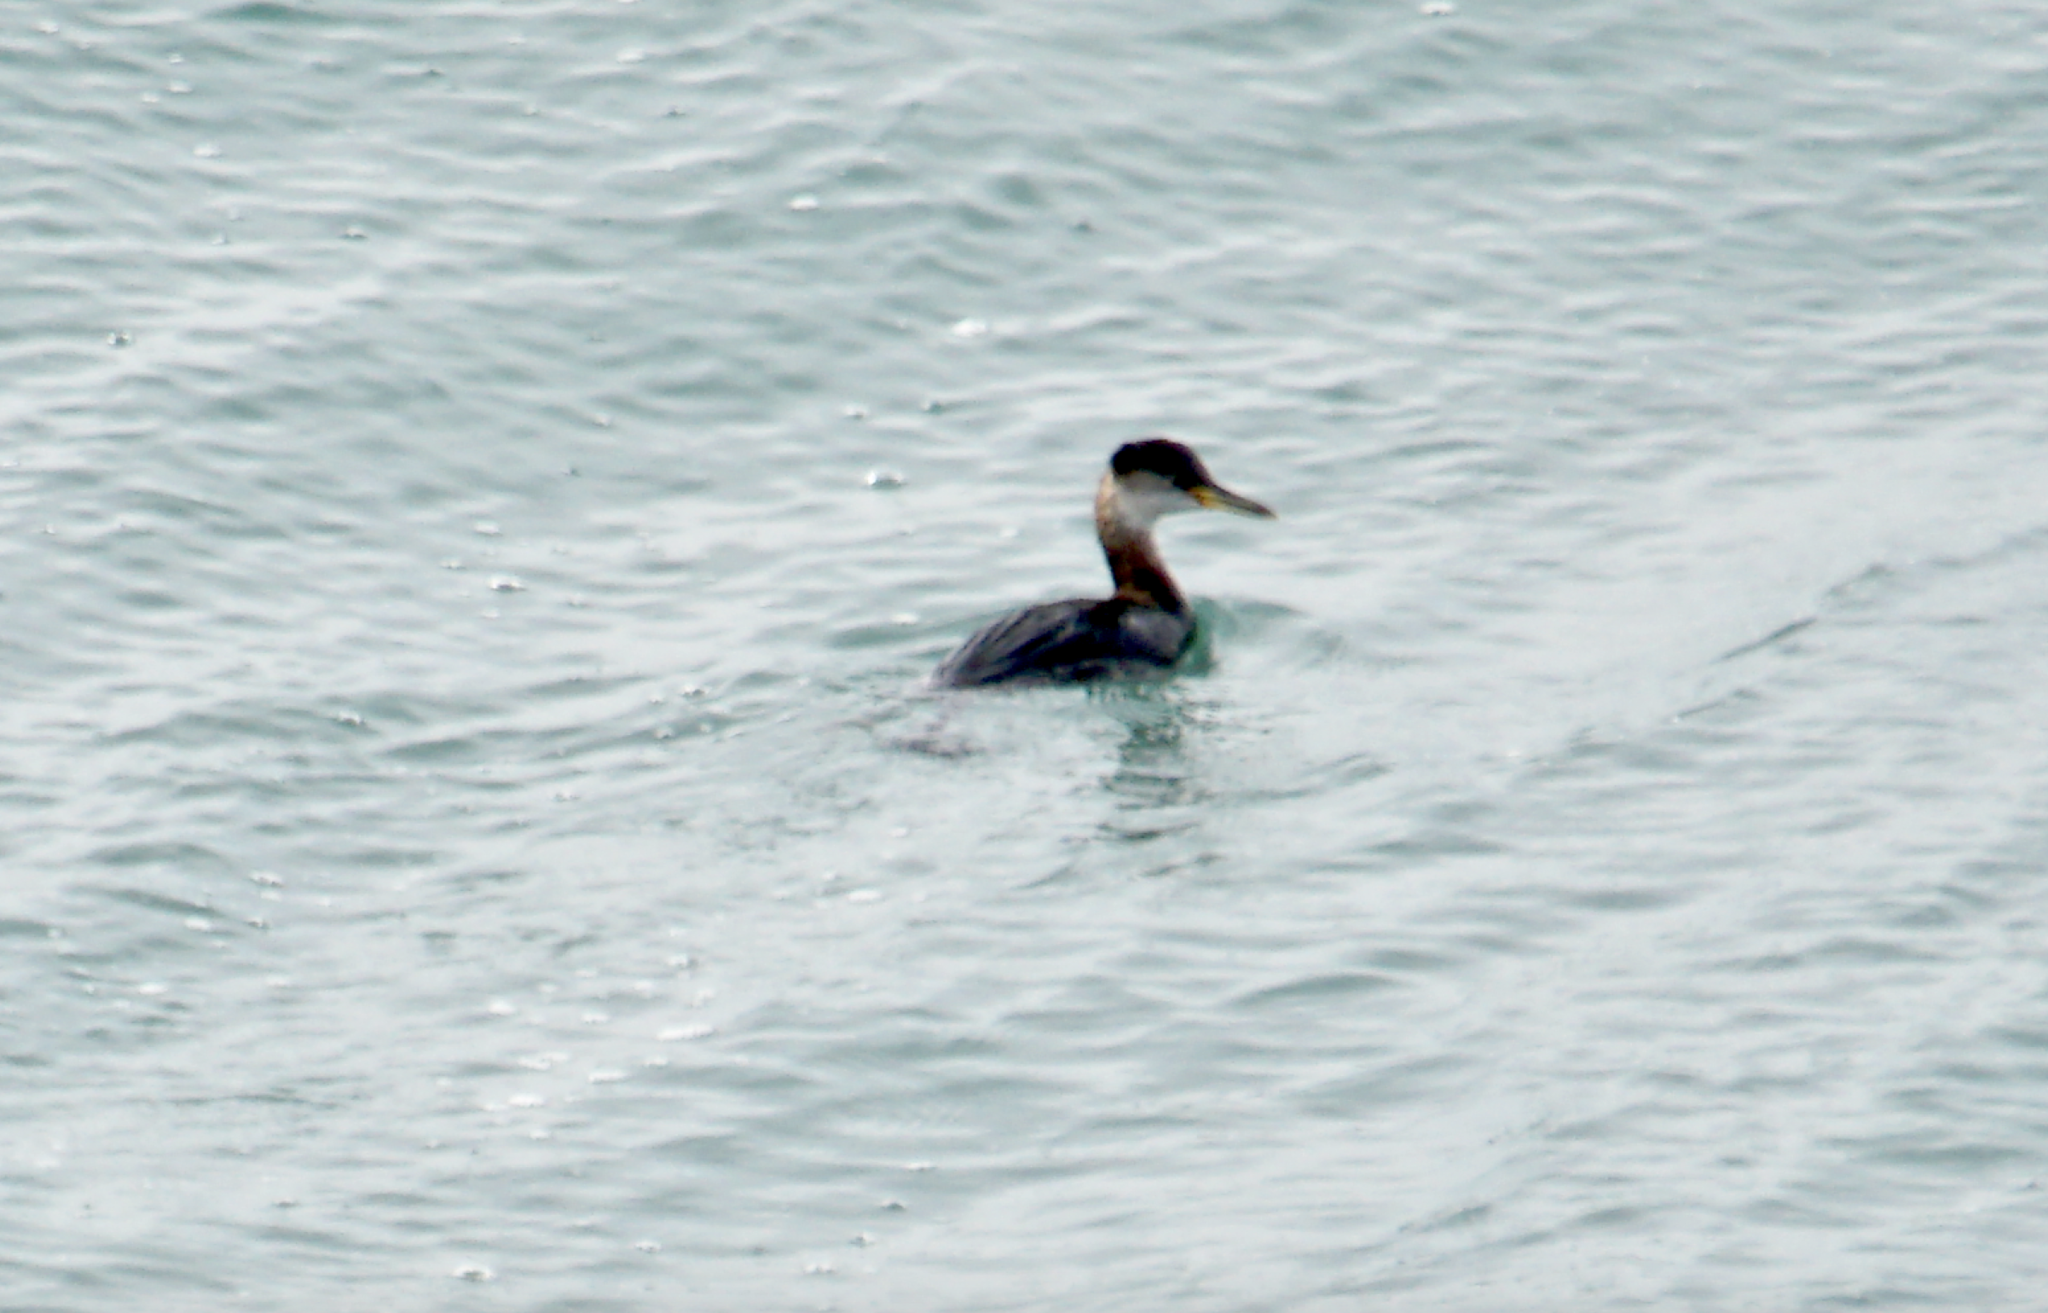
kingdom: Animalia
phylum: Chordata
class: Aves
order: Podicipediformes
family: Podicipedidae
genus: Podiceps
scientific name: Podiceps grisegena
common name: Red-necked grebe
